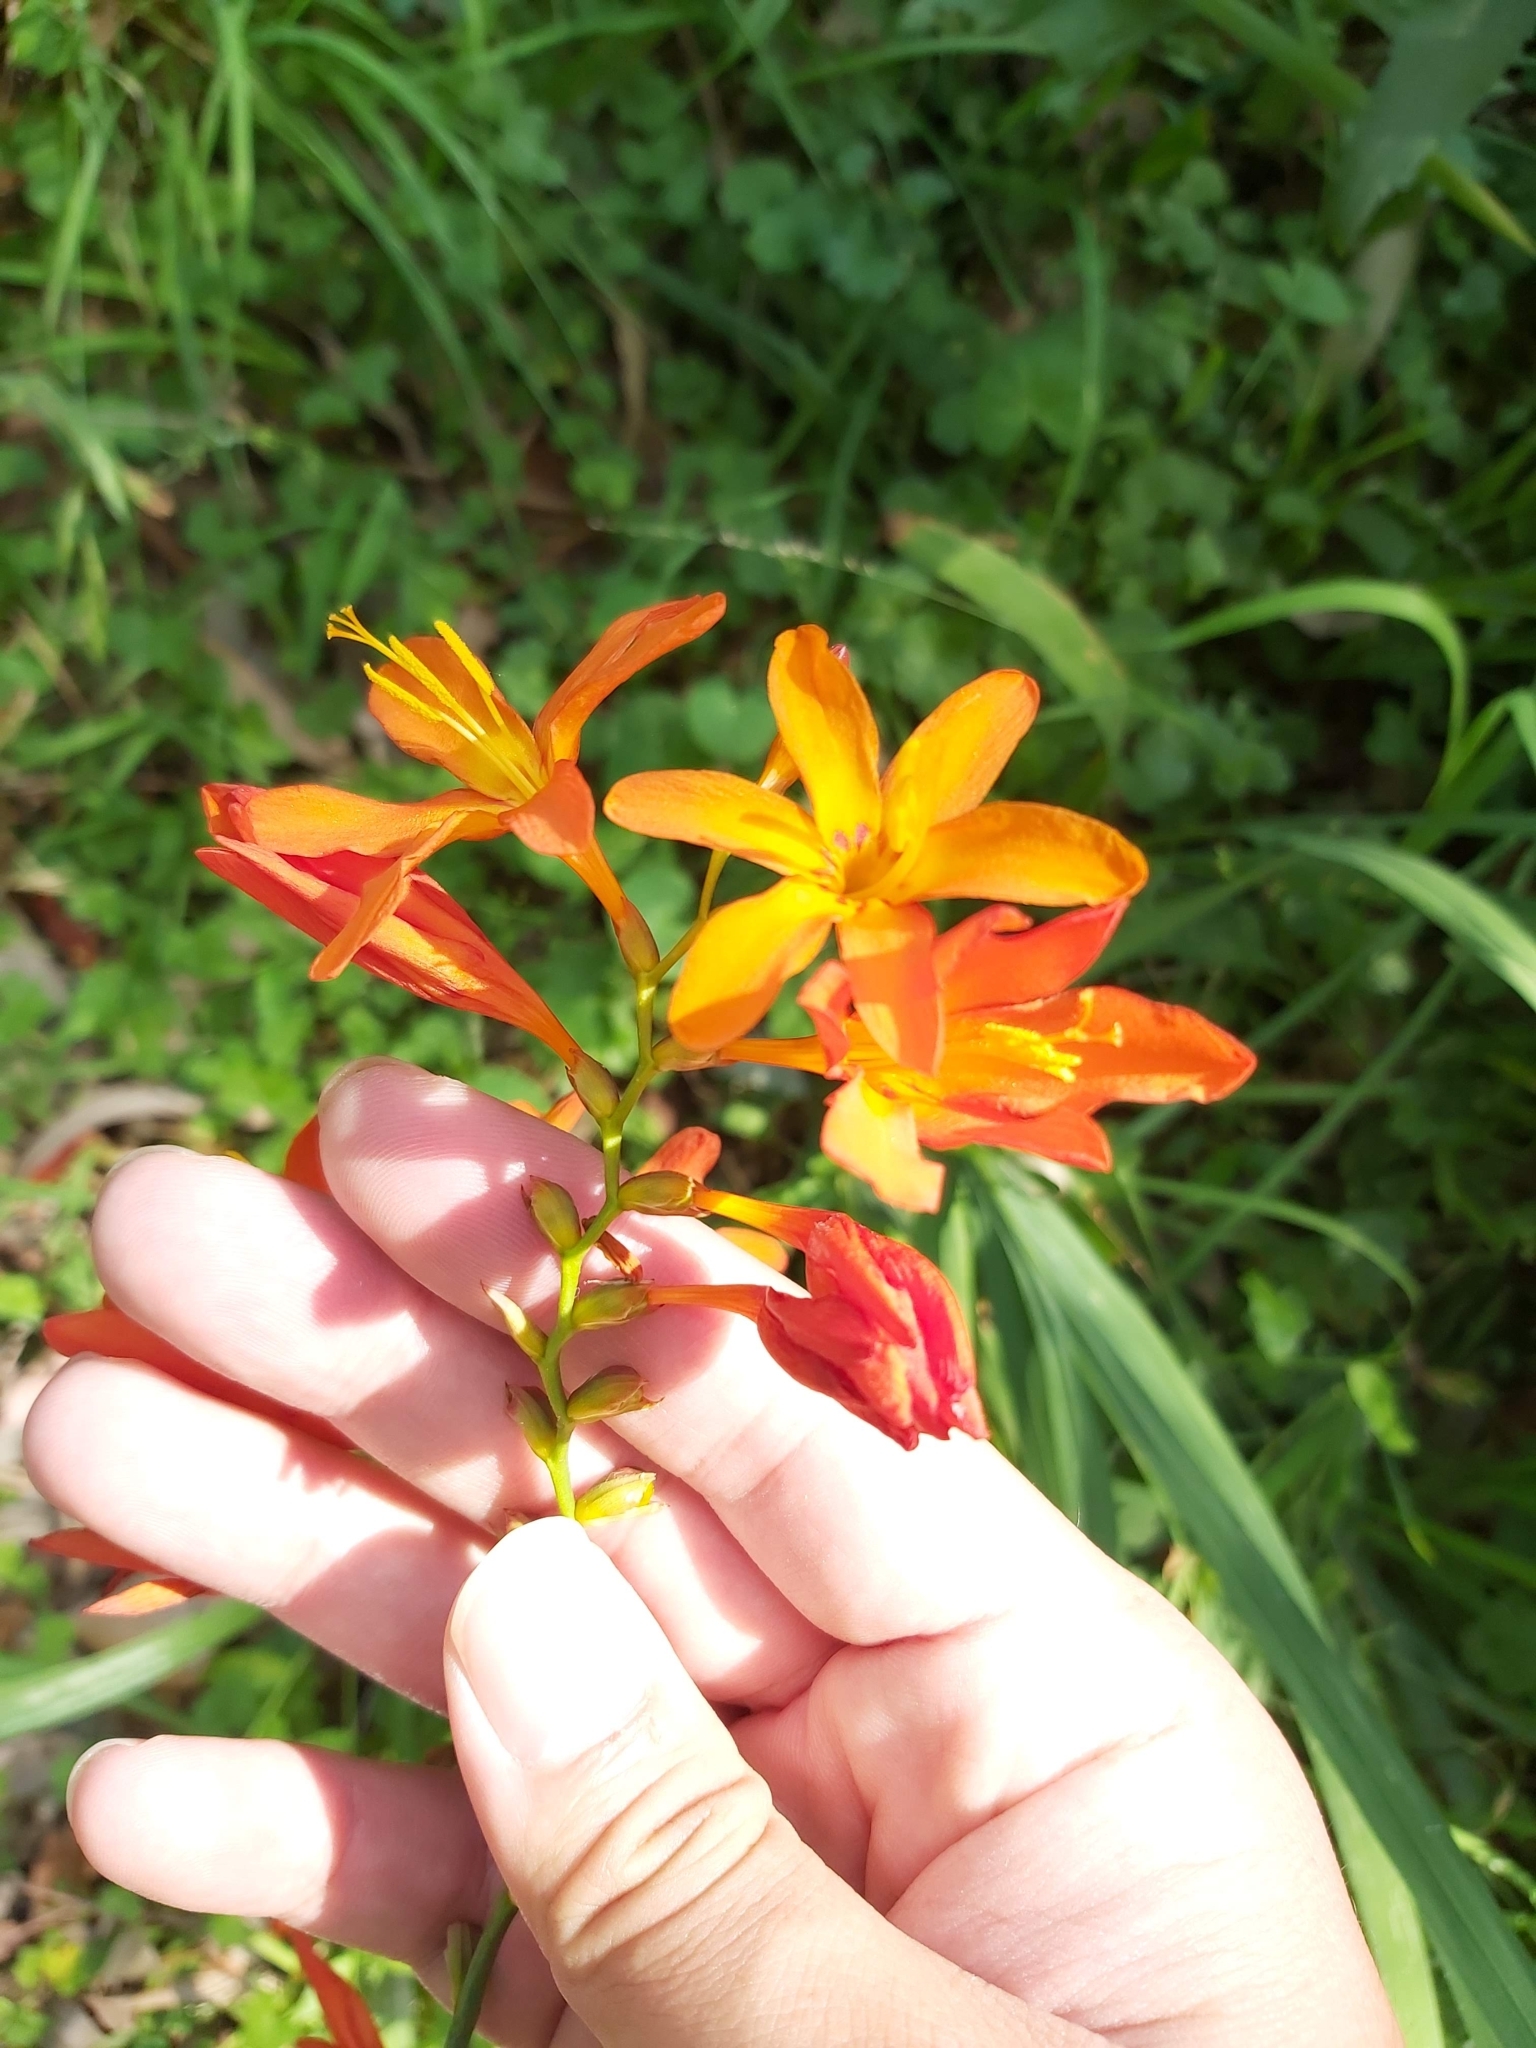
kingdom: Plantae
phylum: Tracheophyta
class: Liliopsida
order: Asparagales
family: Iridaceae
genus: Crocosmia
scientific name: Crocosmia crocosmiiflora
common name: Montbretia
